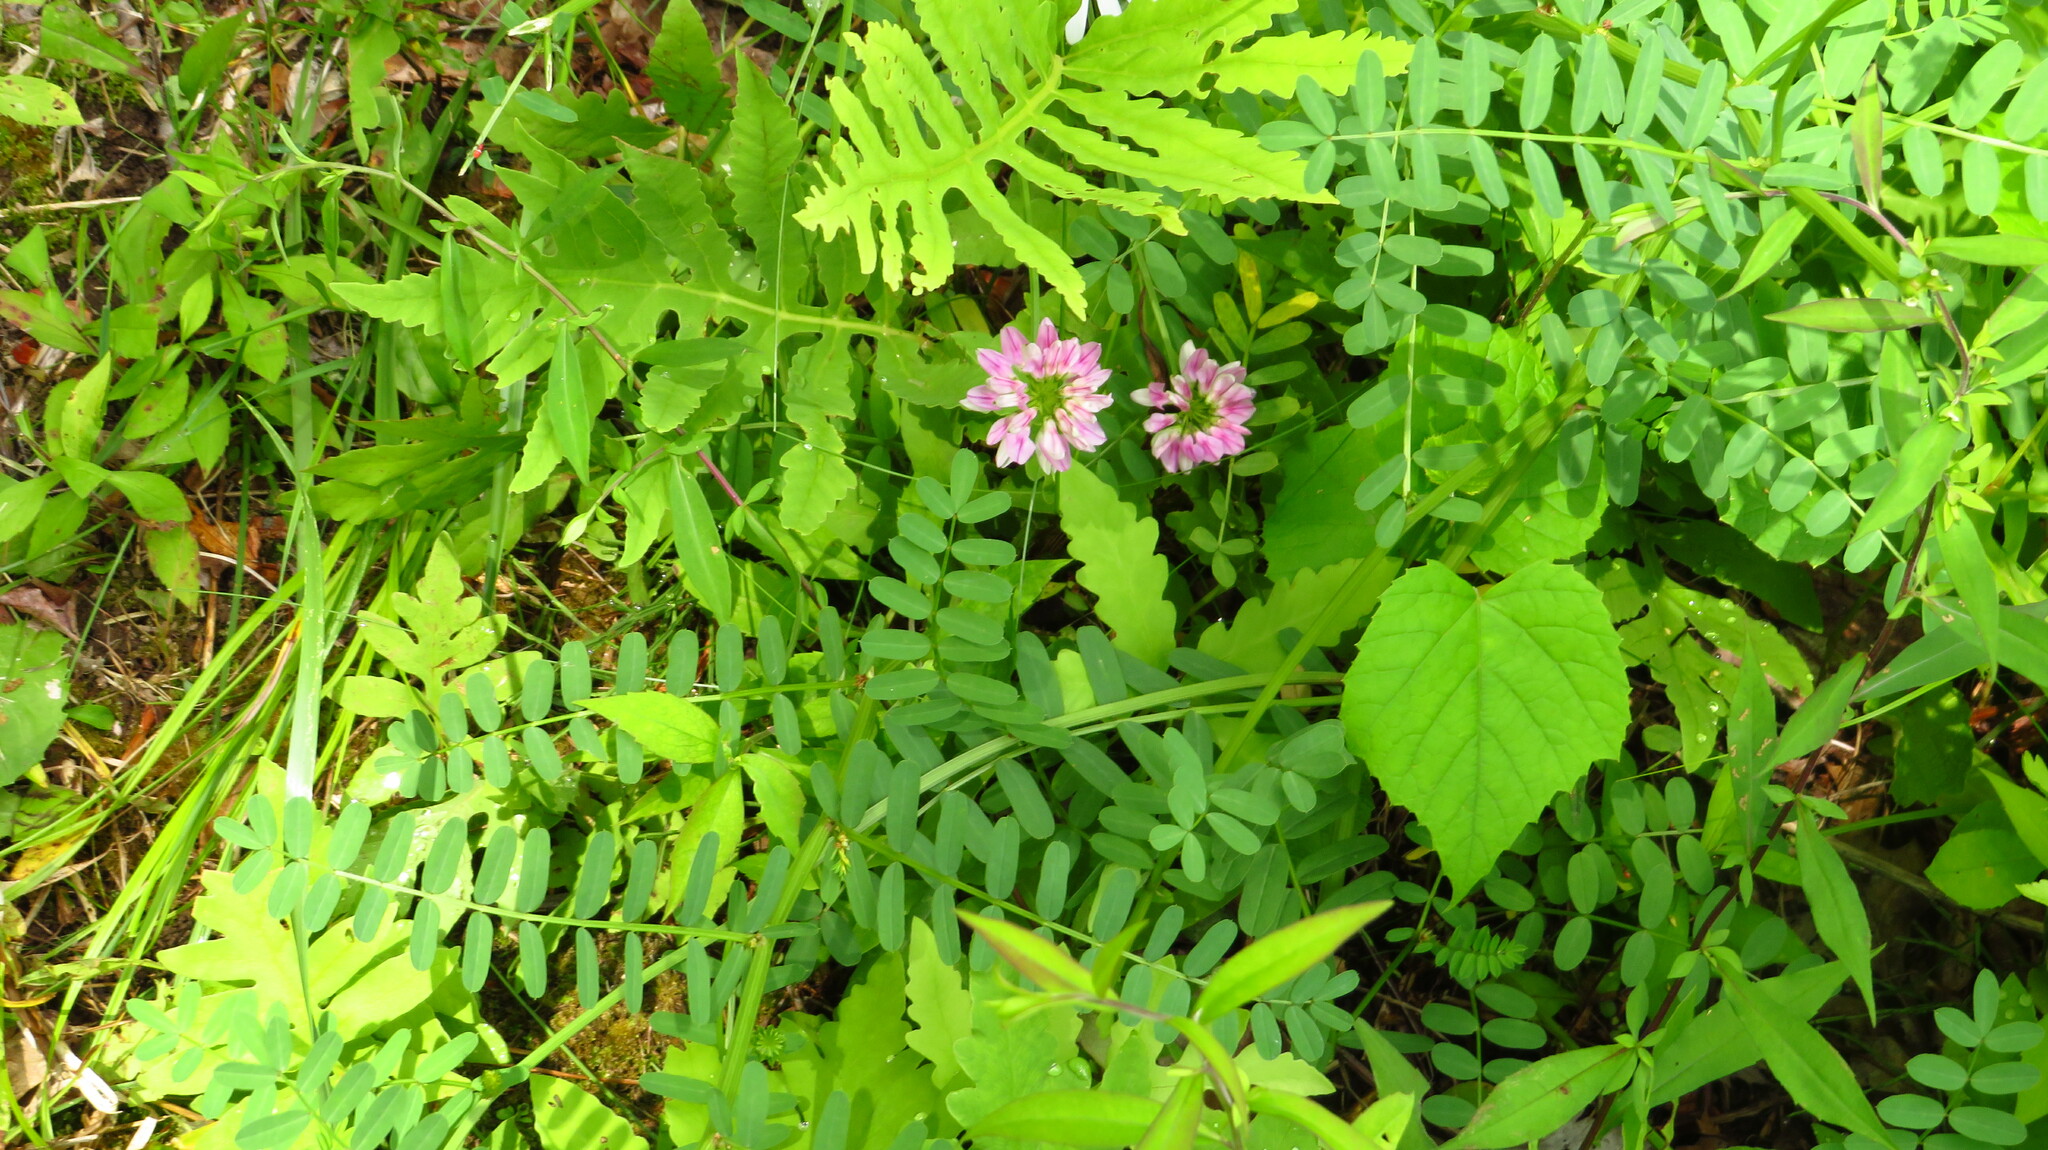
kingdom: Plantae
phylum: Tracheophyta
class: Magnoliopsida
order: Fabales
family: Fabaceae
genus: Coronilla
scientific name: Coronilla varia
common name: Crownvetch
